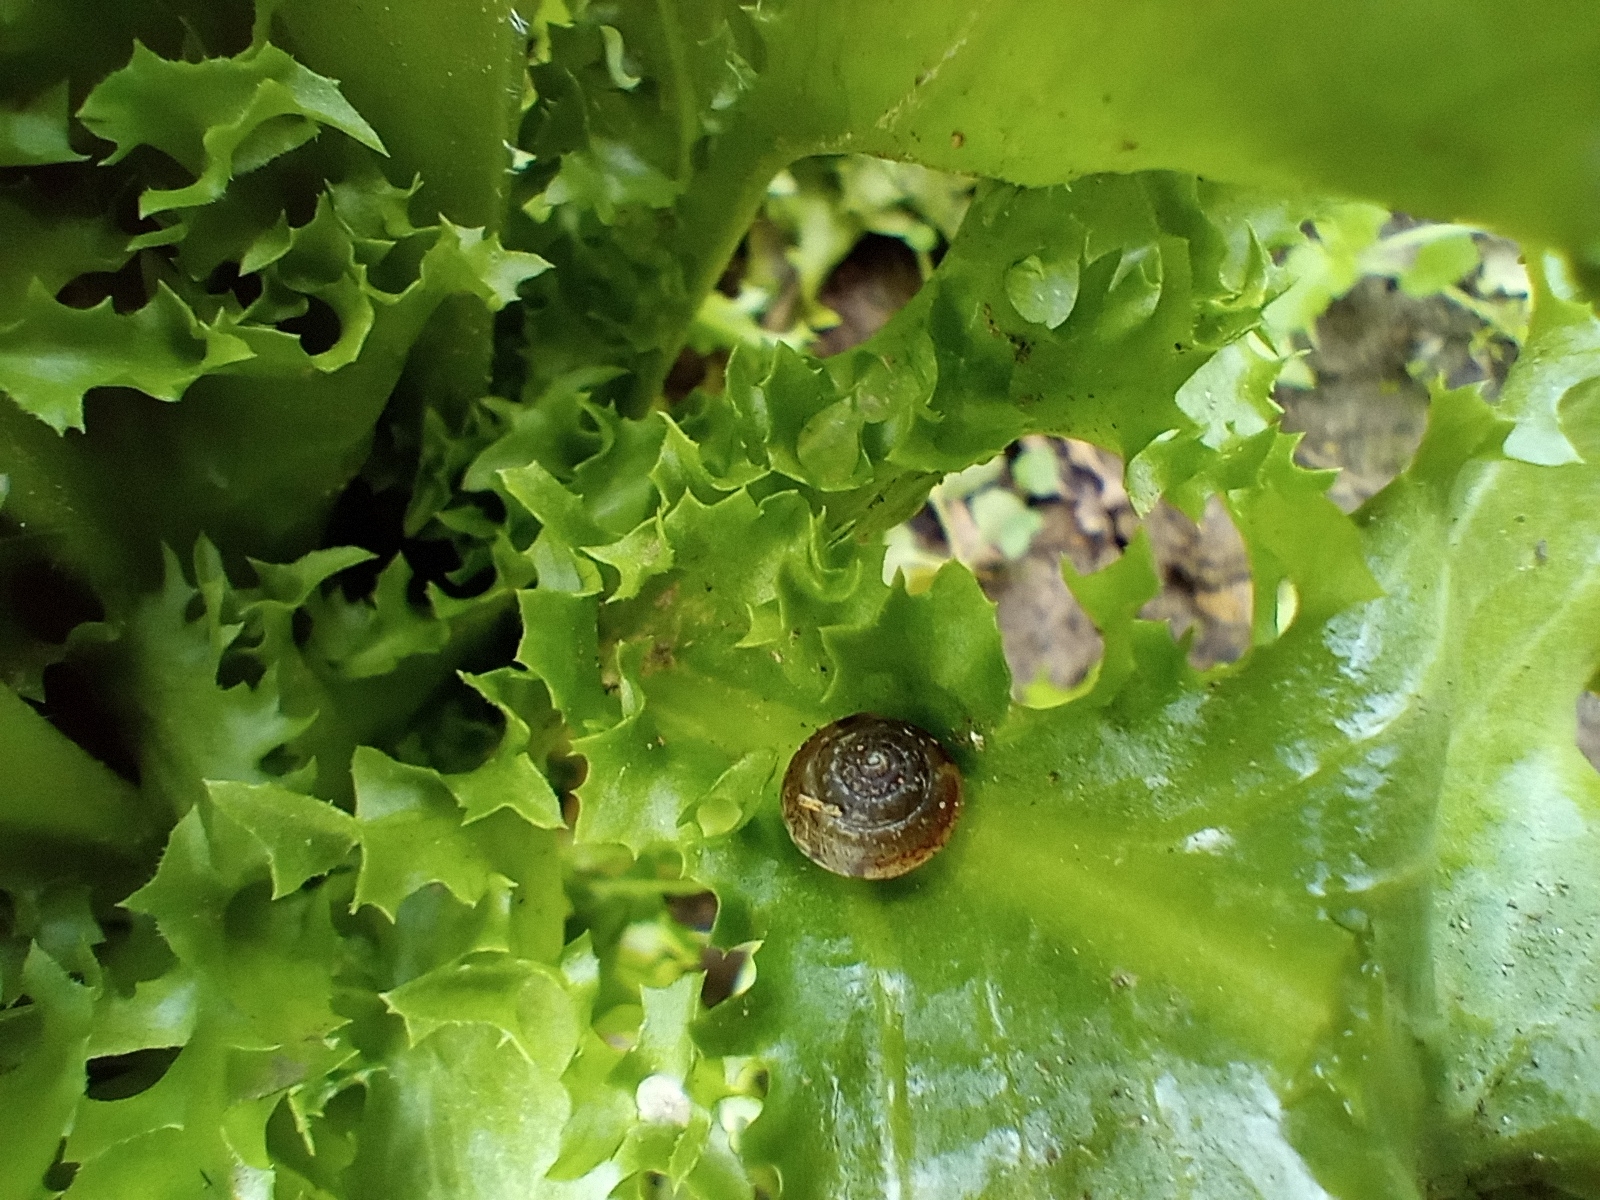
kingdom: Animalia
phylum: Mollusca
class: Gastropoda
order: Stylommatophora
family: Hygromiidae
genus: Hygromia
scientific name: Hygromia cinctella
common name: Girdled snail
